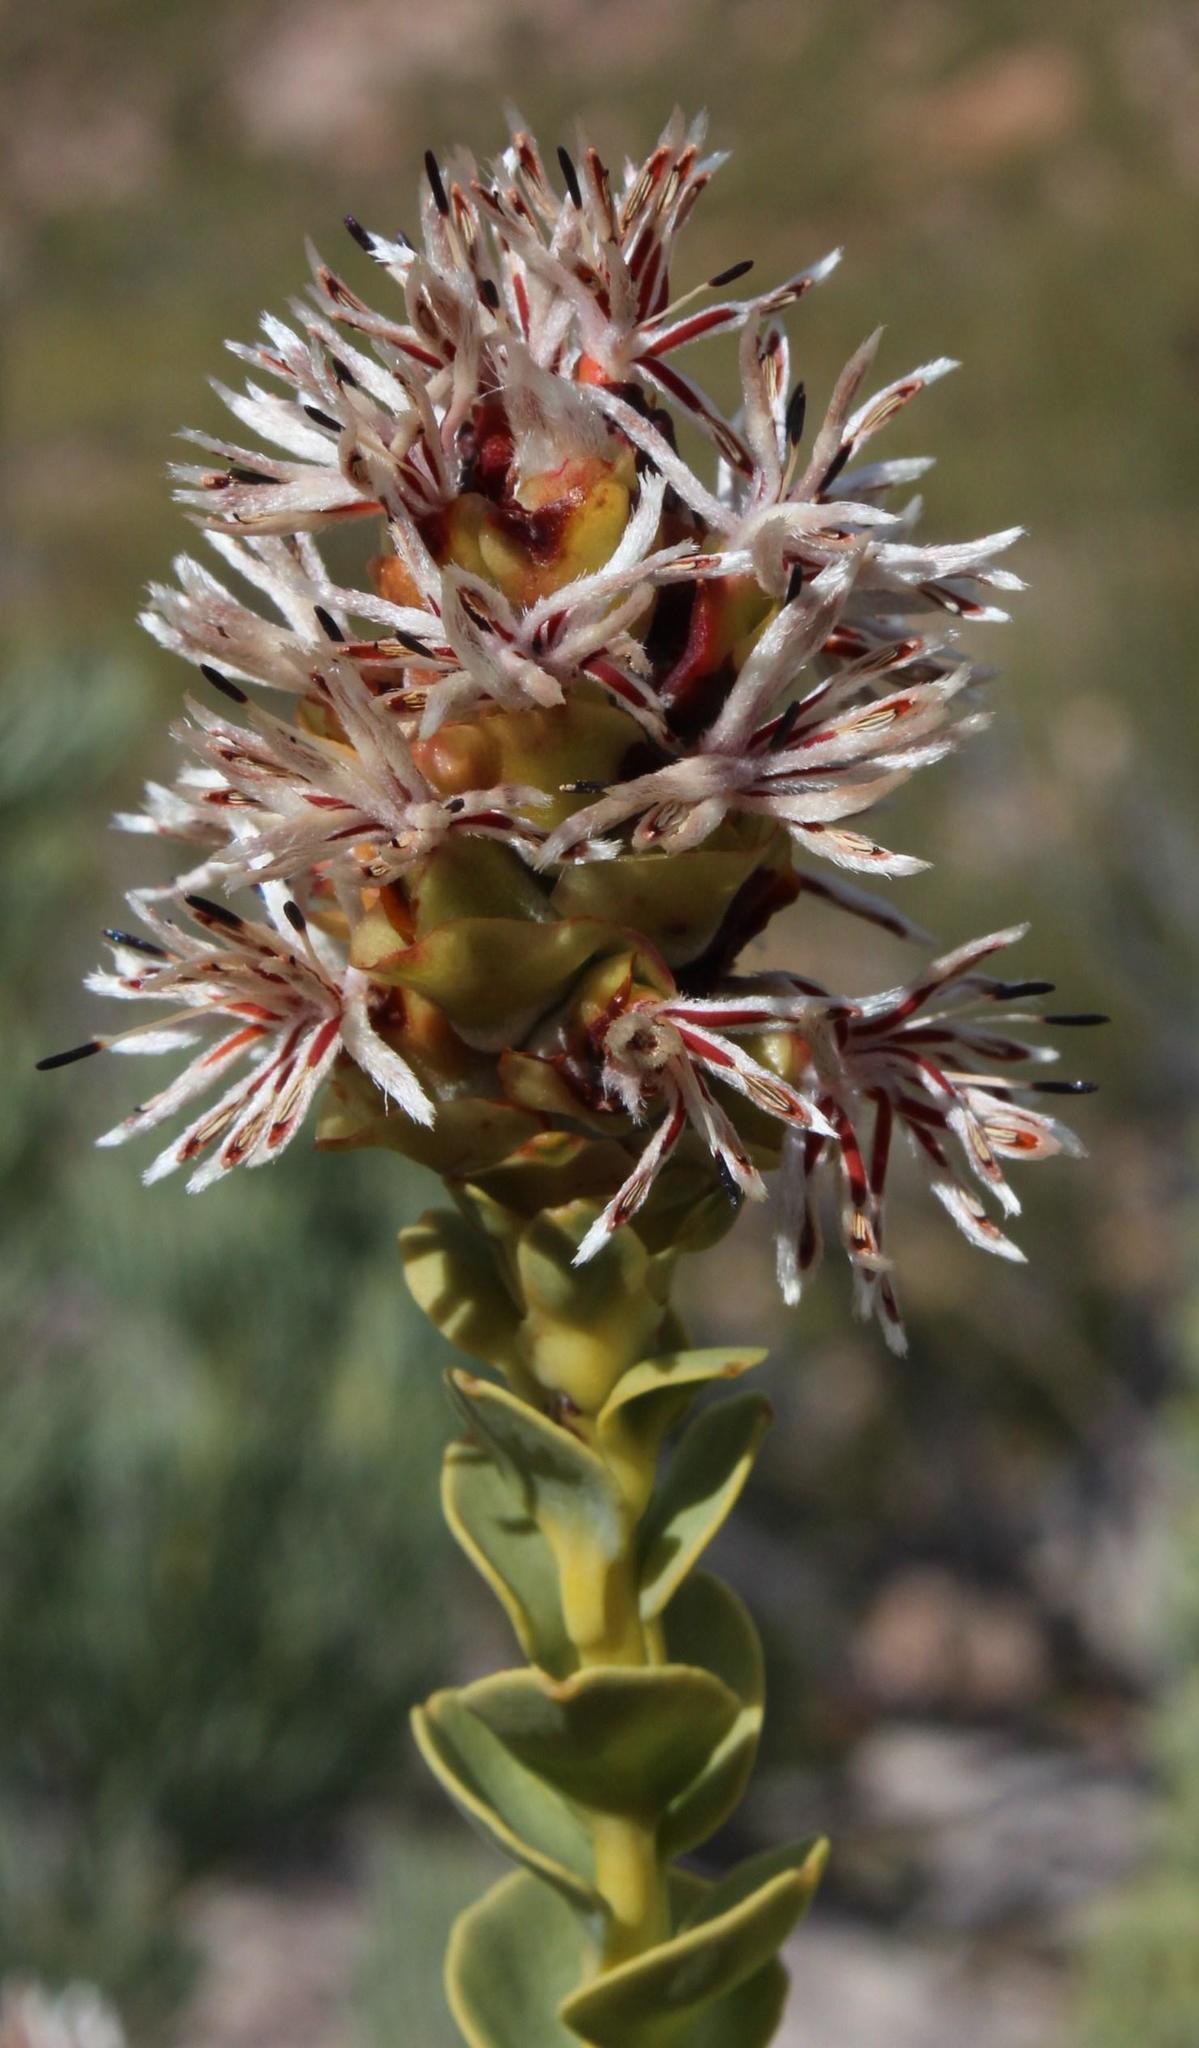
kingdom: Plantae
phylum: Tracheophyta
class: Magnoliopsida
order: Proteales
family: Proteaceae
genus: Paranomus
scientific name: Paranomus roodebergensis
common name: Honey-scented sceptre
